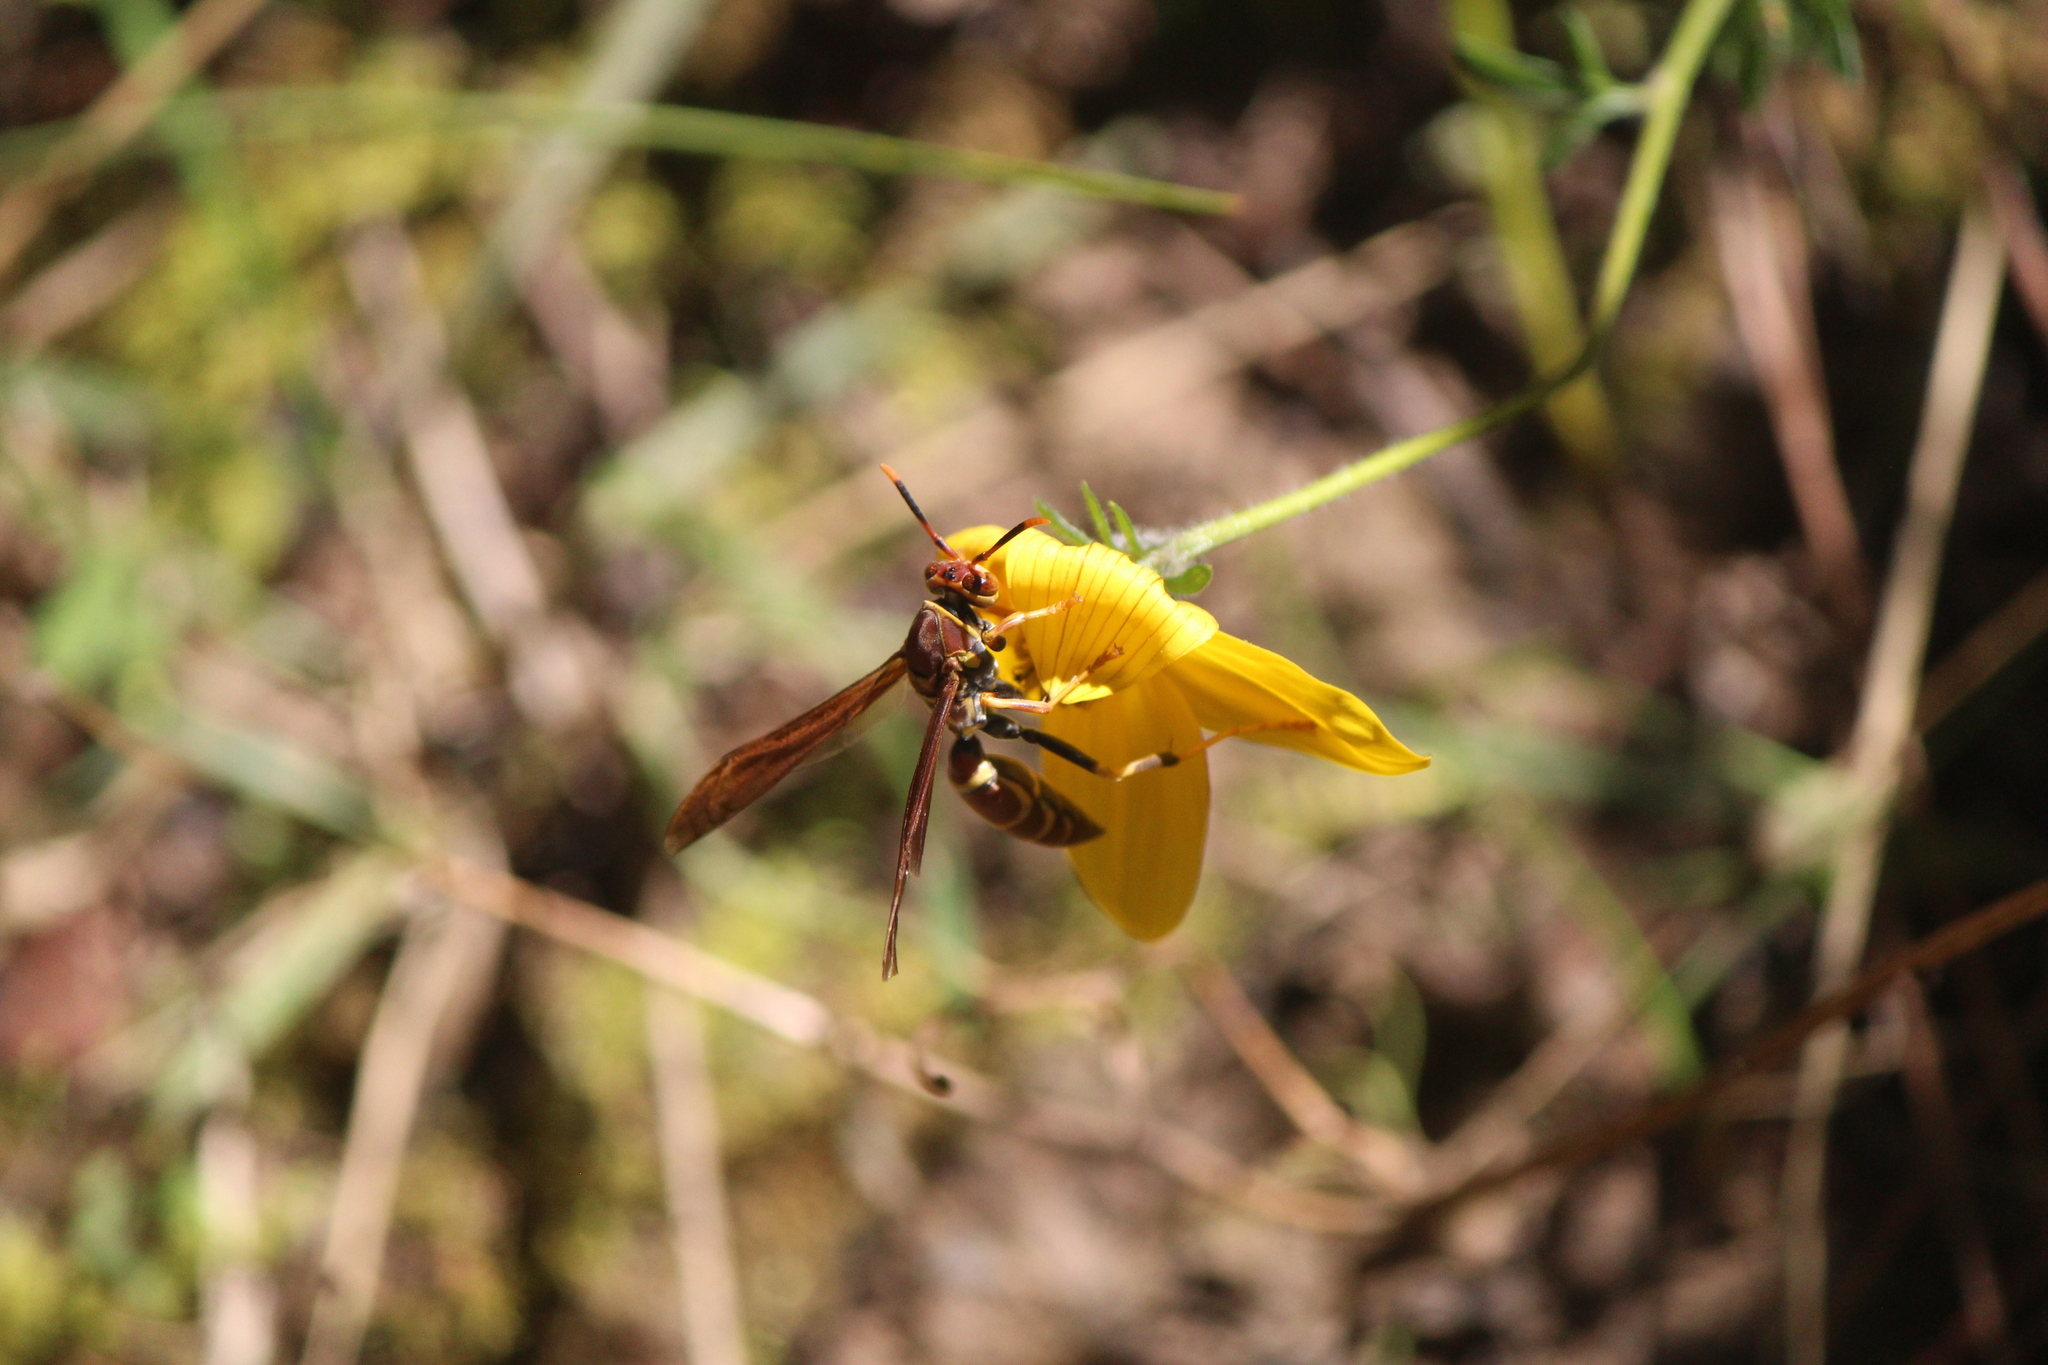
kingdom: Animalia
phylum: Arthropoda
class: Insecta
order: Hymenoptera
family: Eumenidae
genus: Polistes
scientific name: Polistes instabilis
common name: Unstable paper wasp
